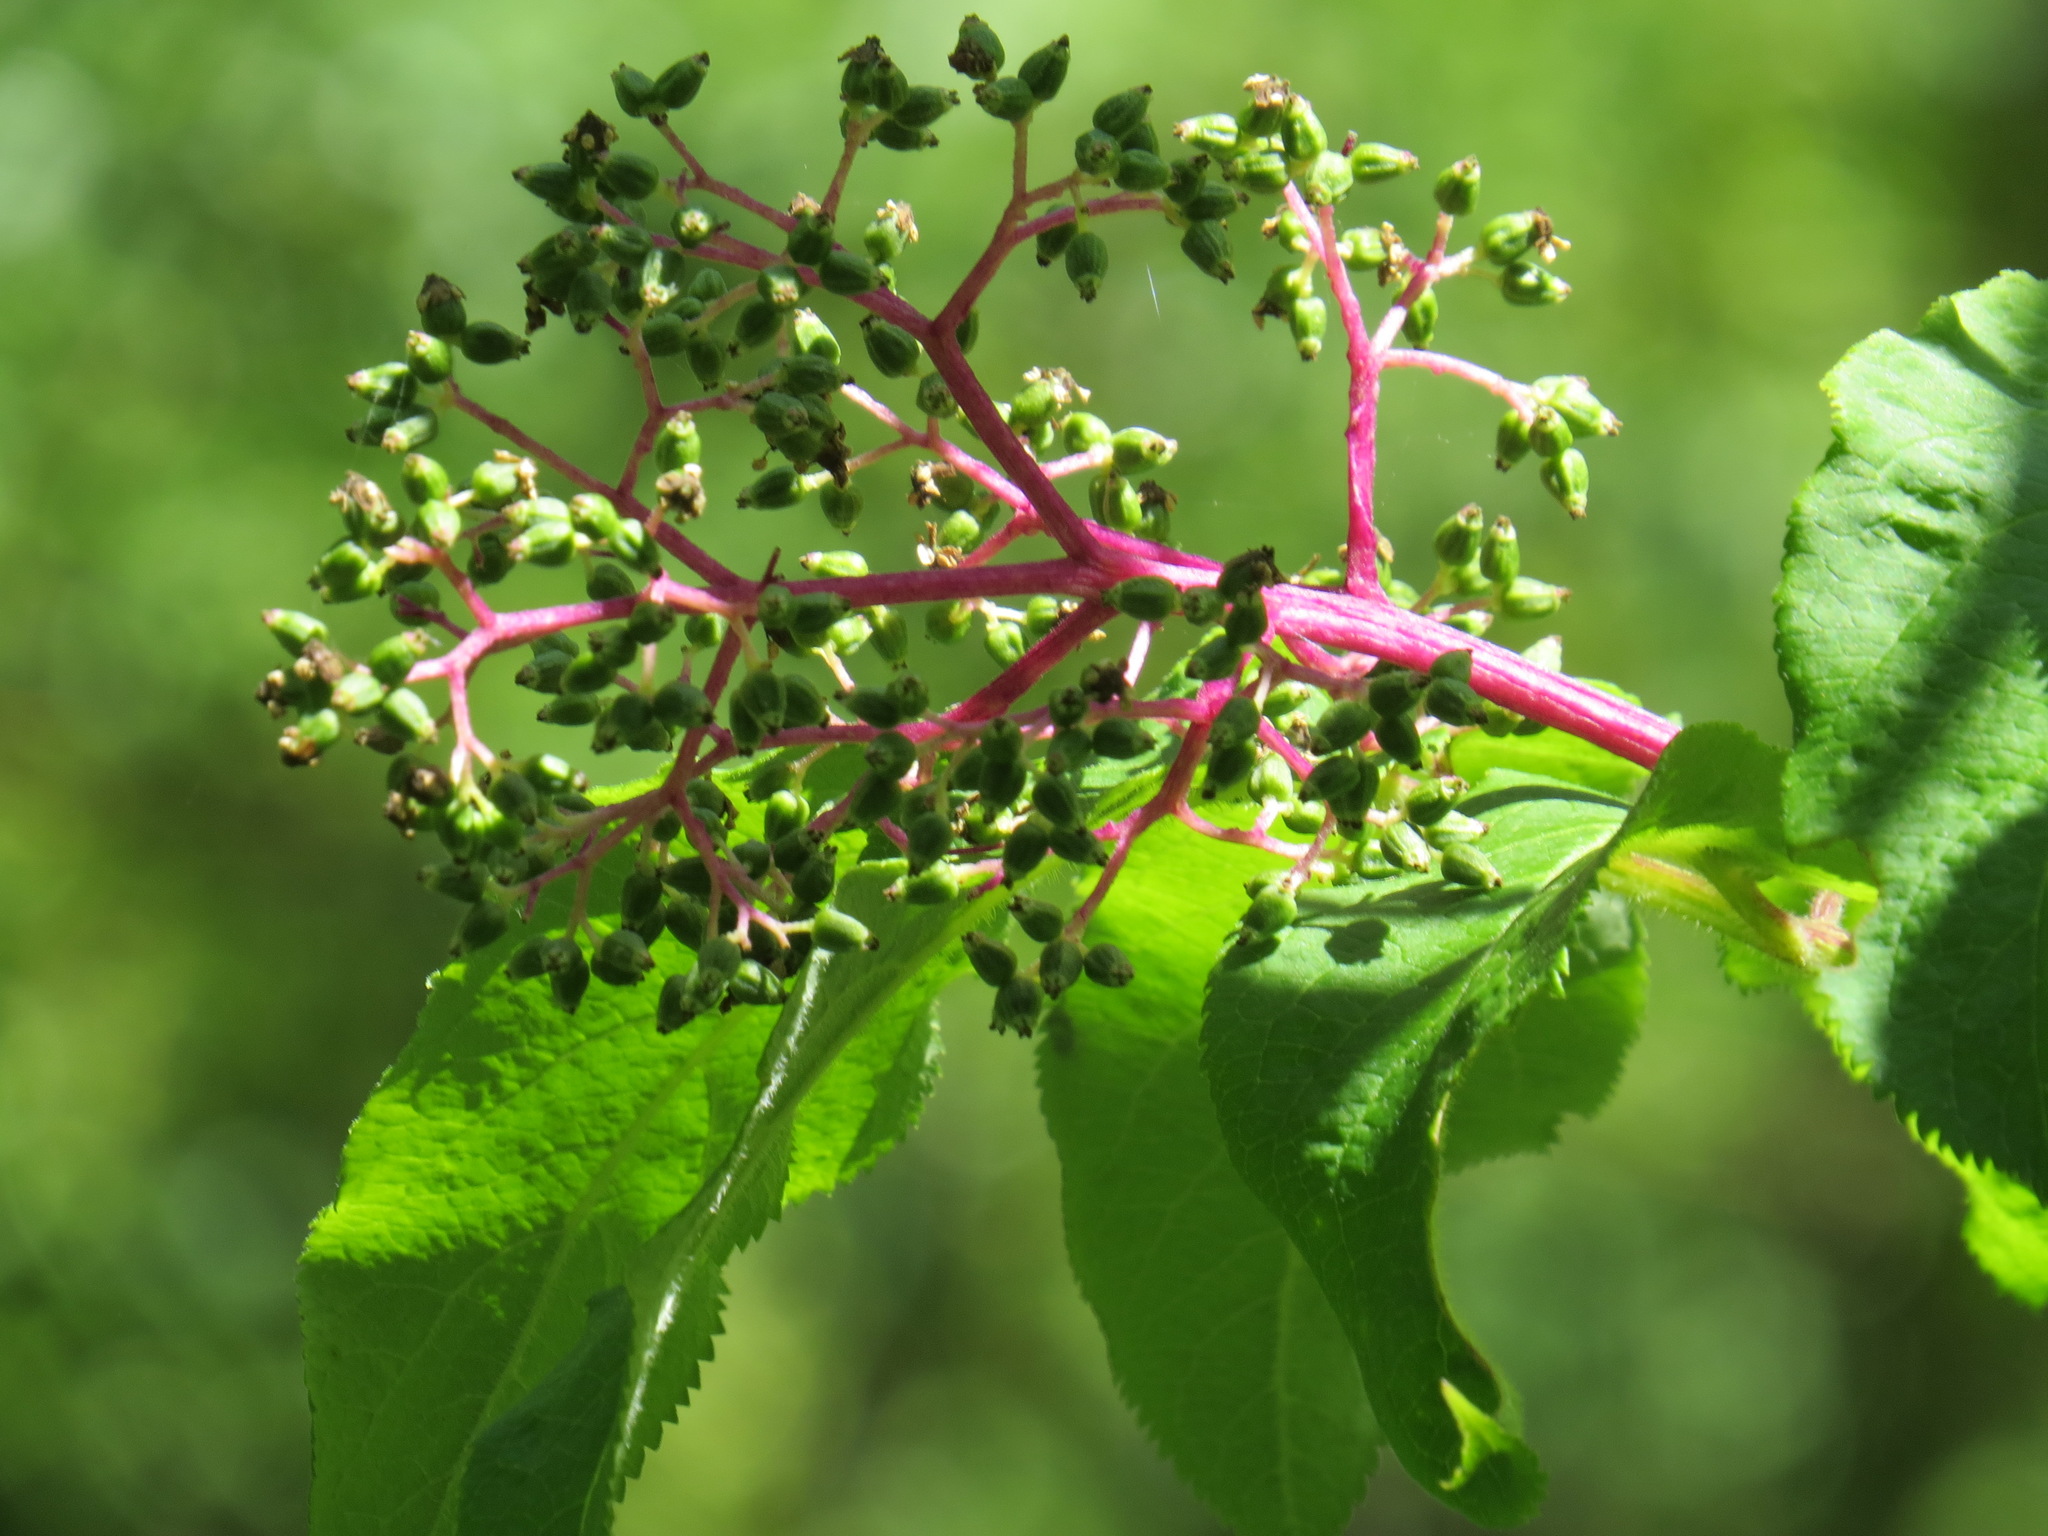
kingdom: Plantae
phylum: Tracheophyta
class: Magnoliopsida
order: Dipsacales
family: Viburnaceae
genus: Sambucus
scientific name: Sambucus racemosa
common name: Red-berried elder
